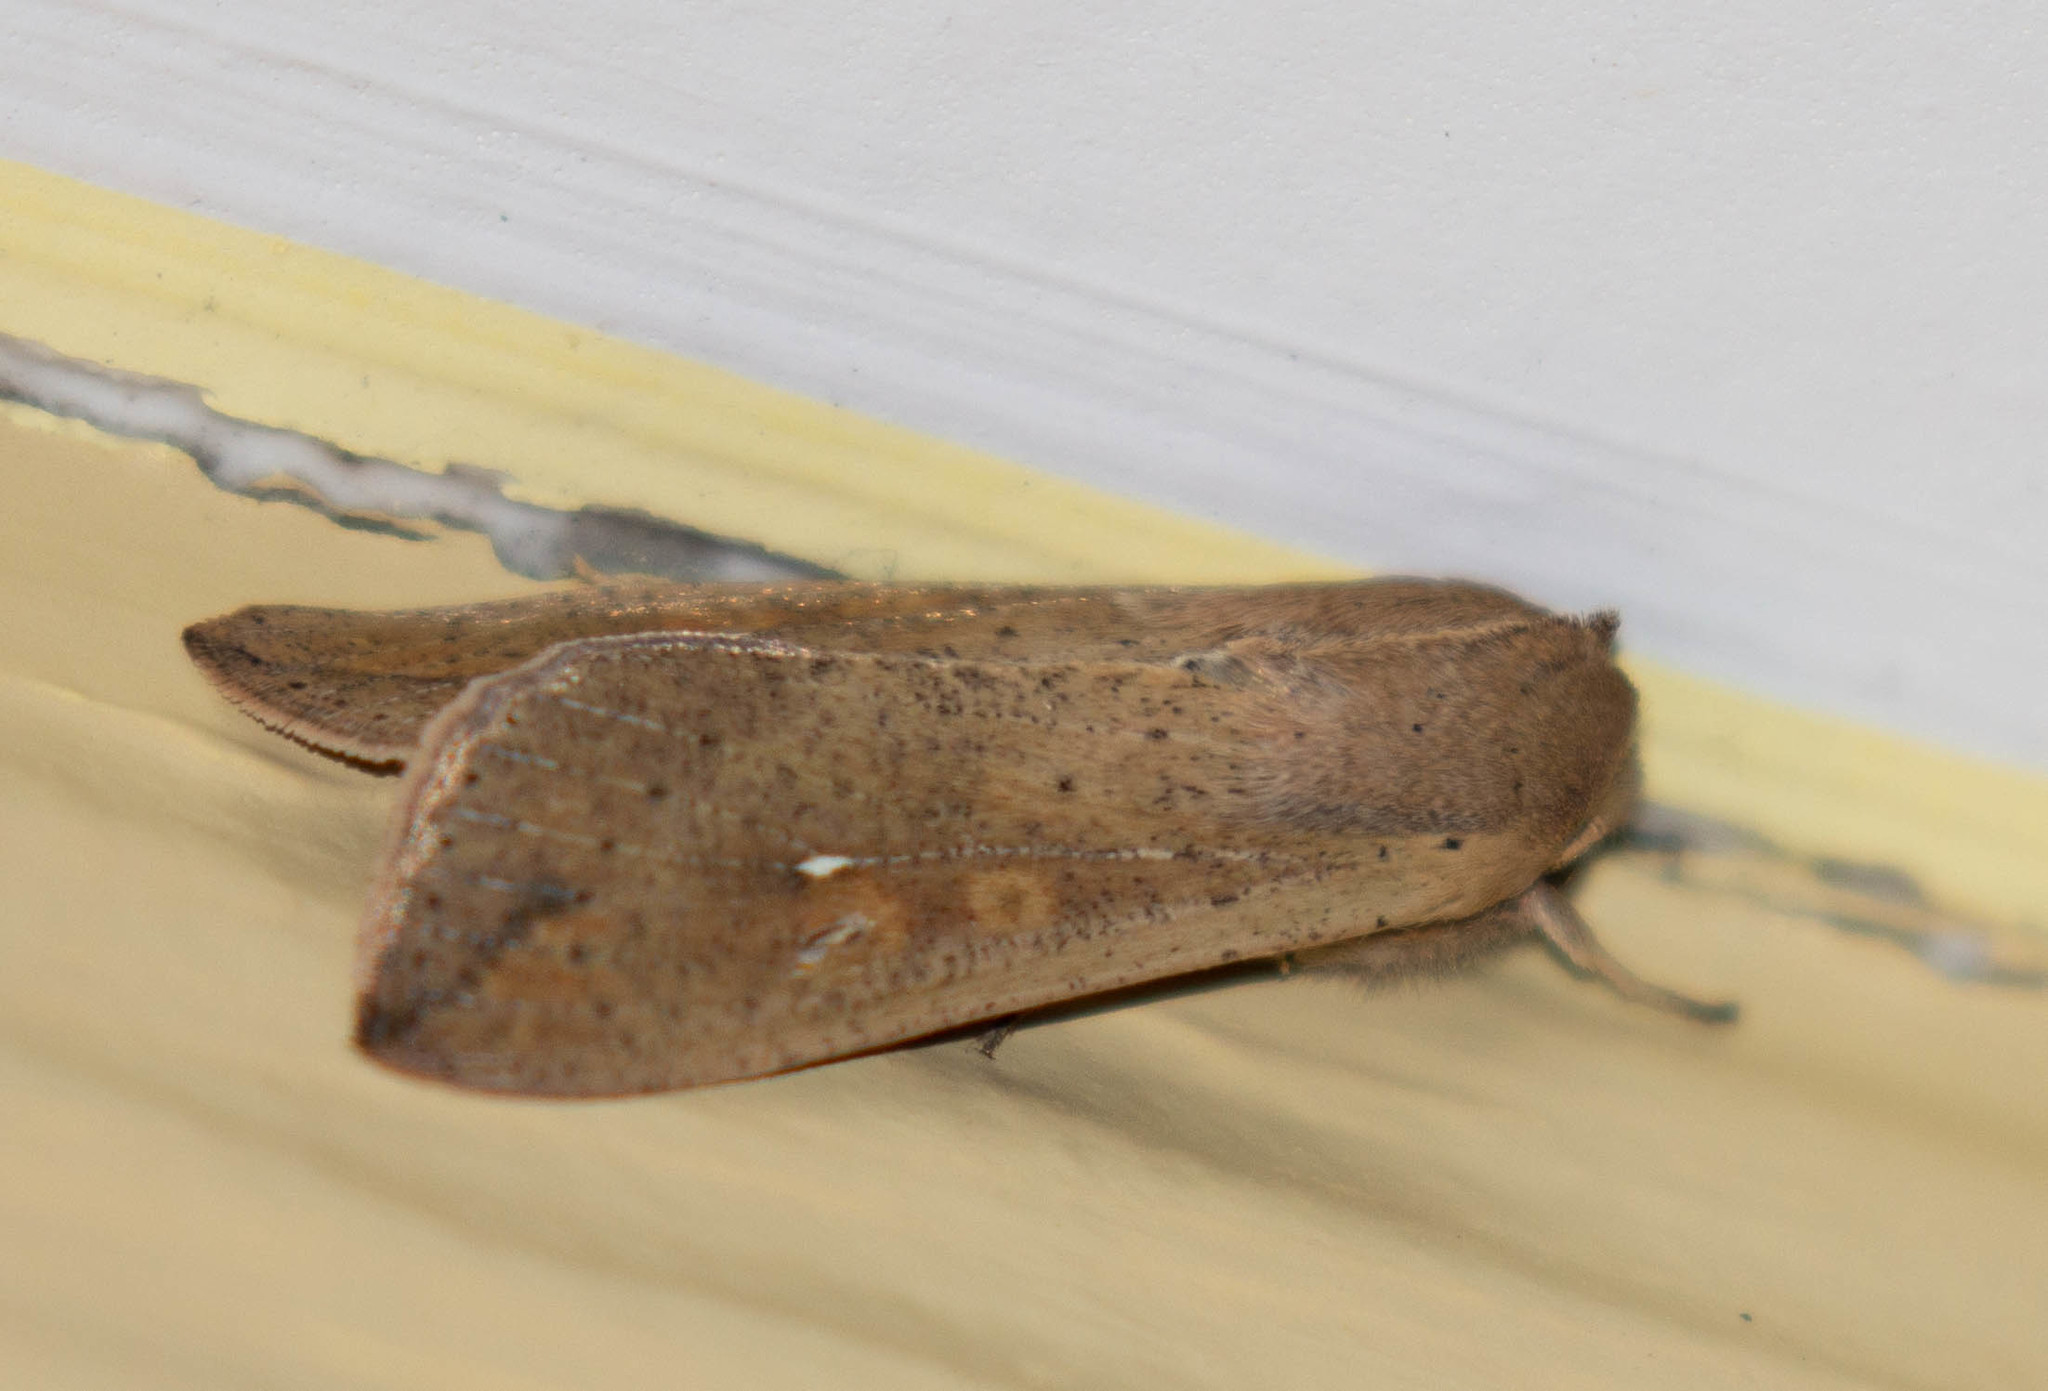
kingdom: Animalia
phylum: Arthropoda
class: Insecta
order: Lepidoptera
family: Noctuidae
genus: Mythimna
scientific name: Mythimna unipuncta
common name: White-speck
